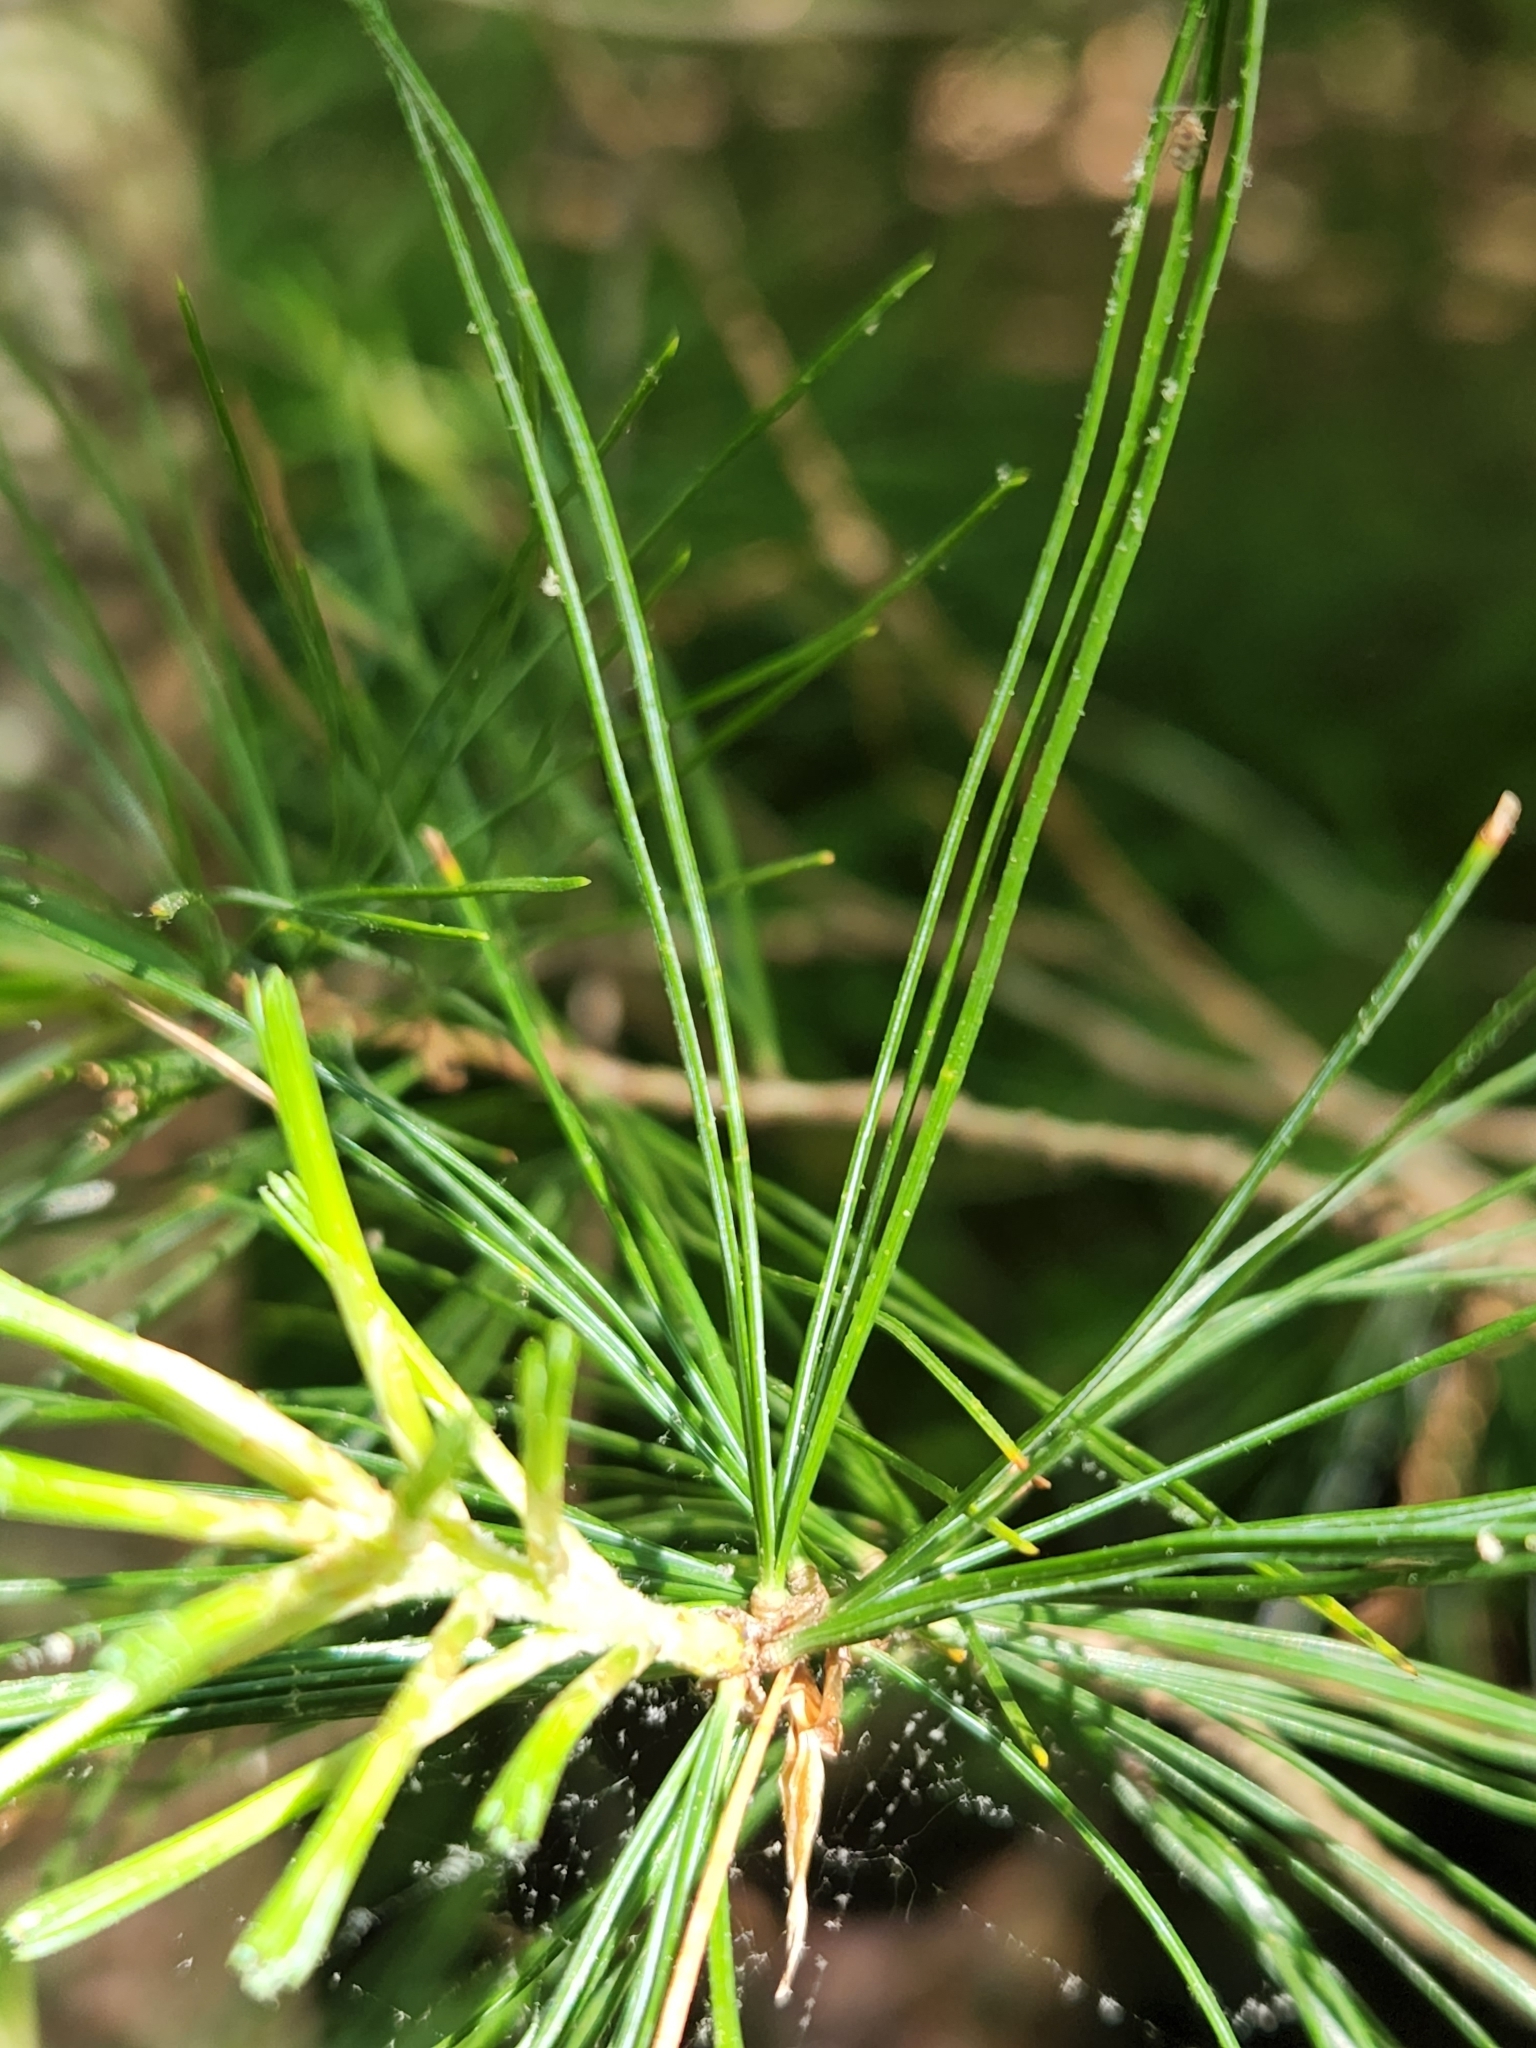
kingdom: Plantae
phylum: Tracheophyta
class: Pinopsida
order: Pinales
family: Pinaceae
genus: Pinus
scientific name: Pinus strobus
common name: Weymouth pine
